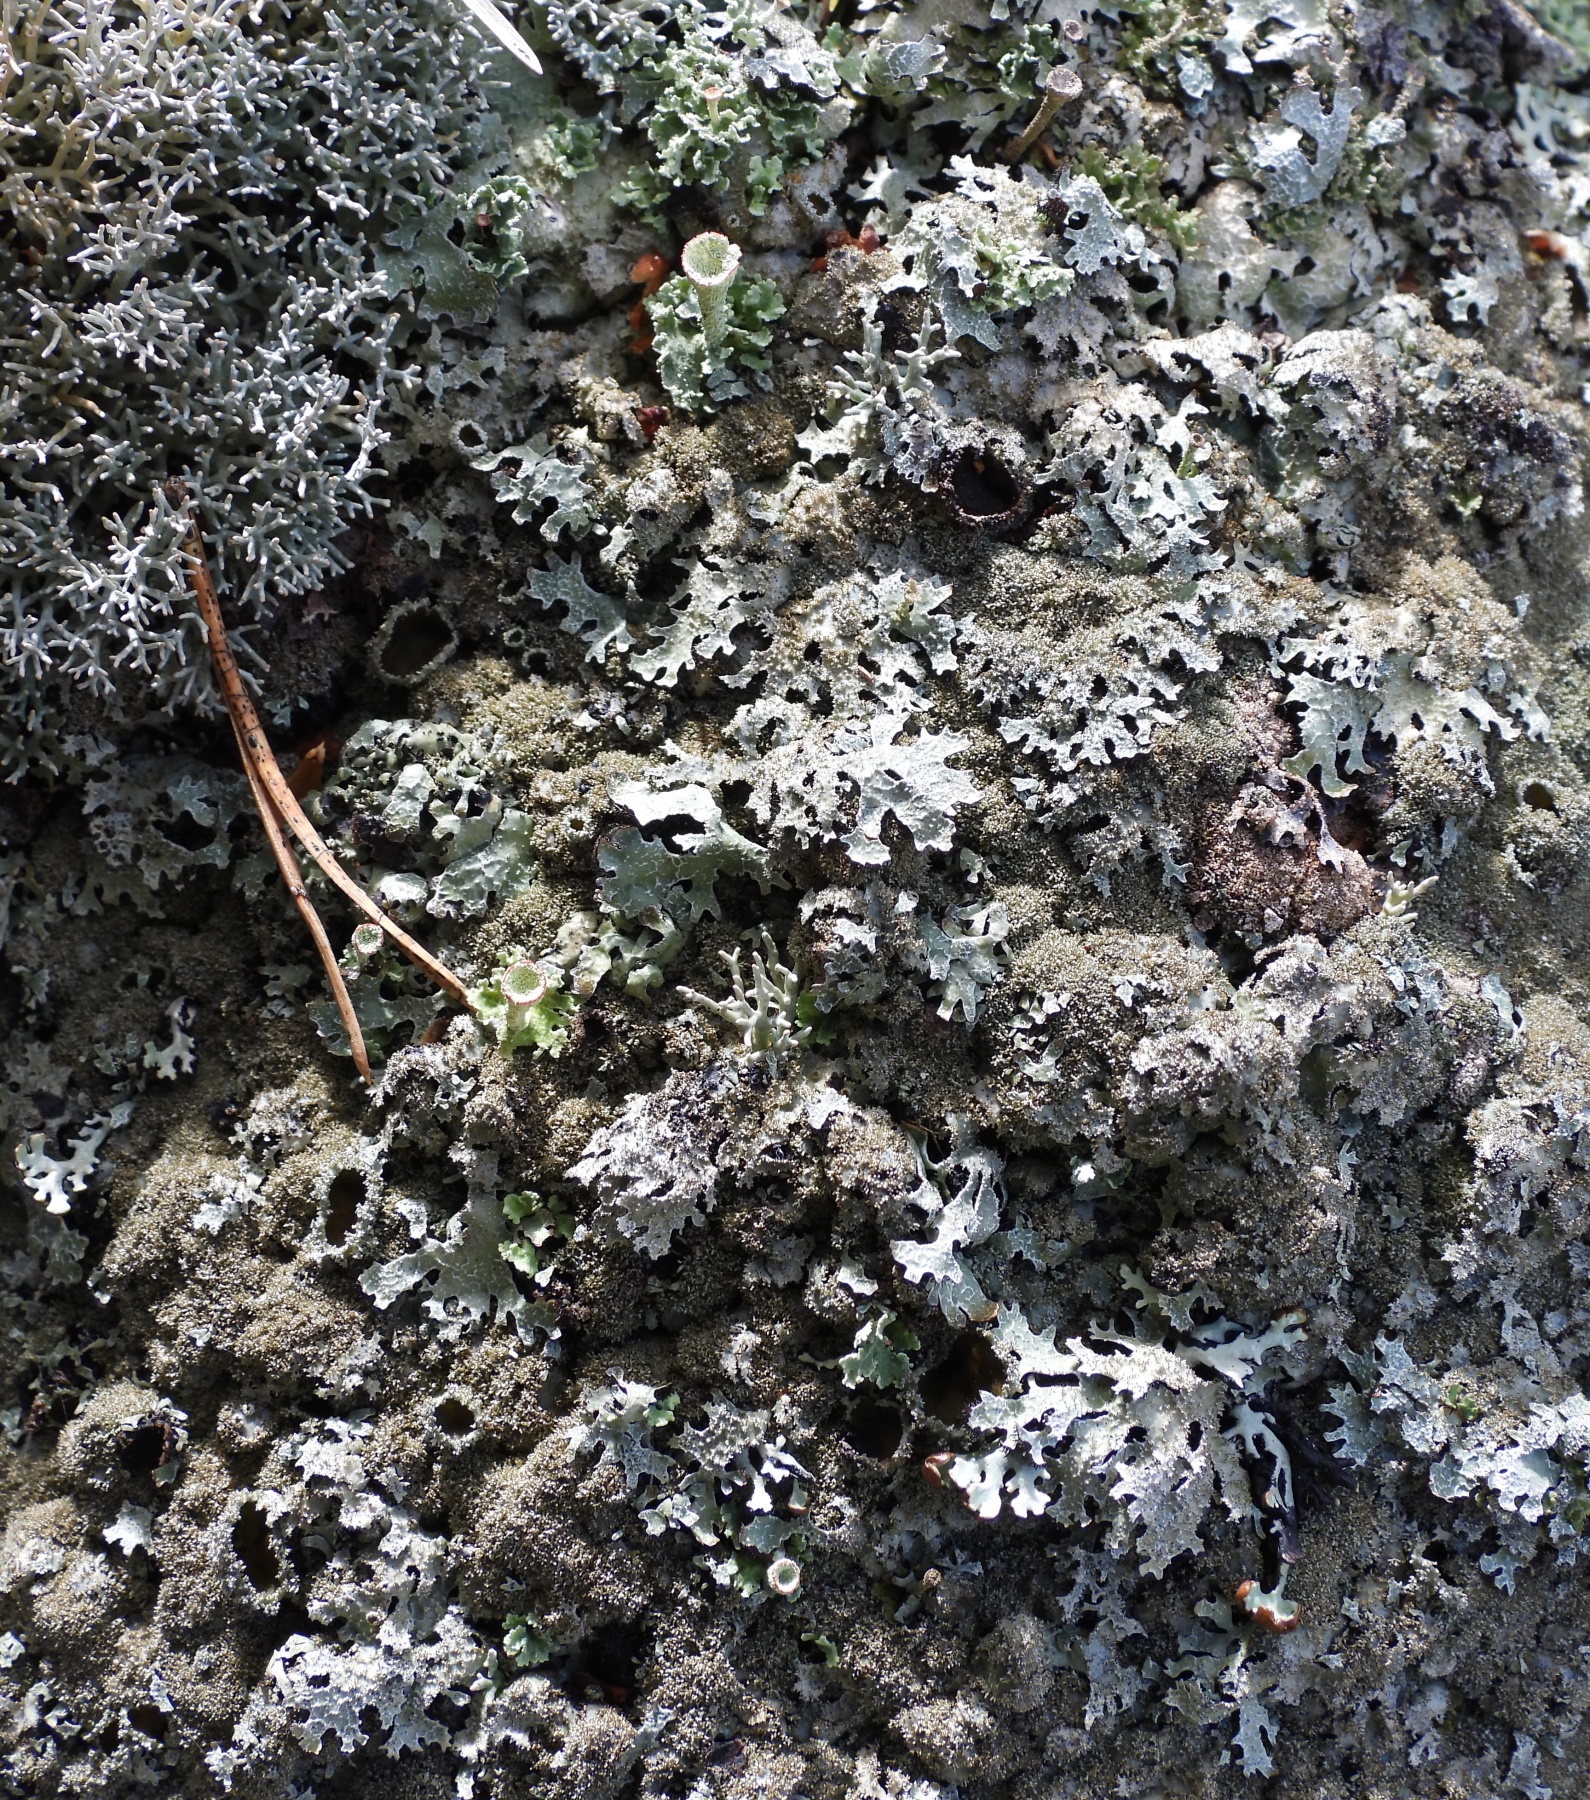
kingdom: Fungi
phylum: Ascomycota
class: Lecanoromycetes
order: Lecanorales
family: Parmeliaceae
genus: Parmelia
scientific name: Parmelia saxatilis
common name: Salted shield lichen
